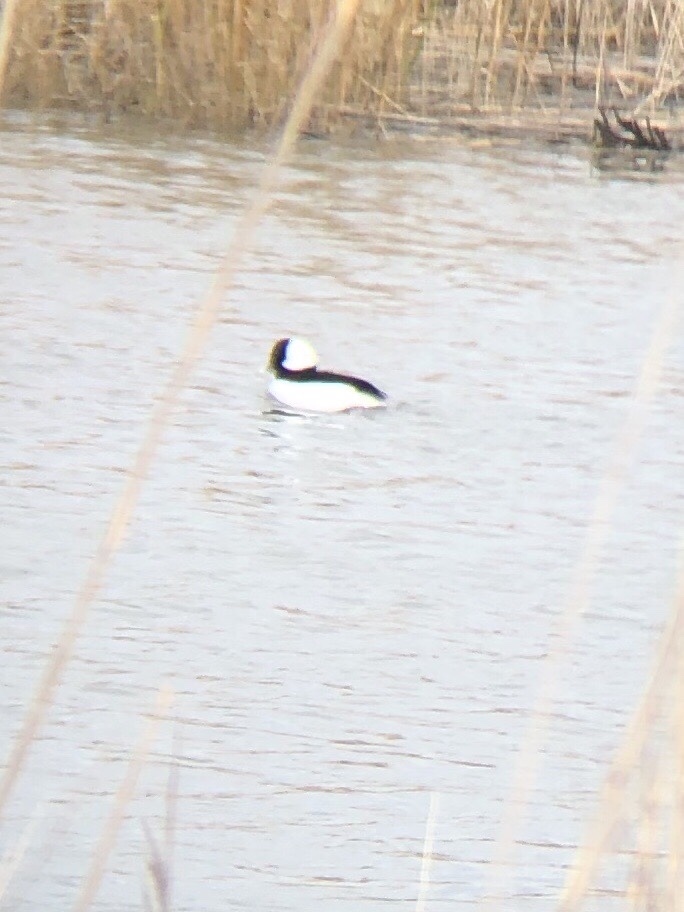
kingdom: Animalia
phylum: Chordata
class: Aves
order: Anseriformes
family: Anatidae
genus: Bucephala
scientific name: Bucephala albeola
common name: Bufflehead
